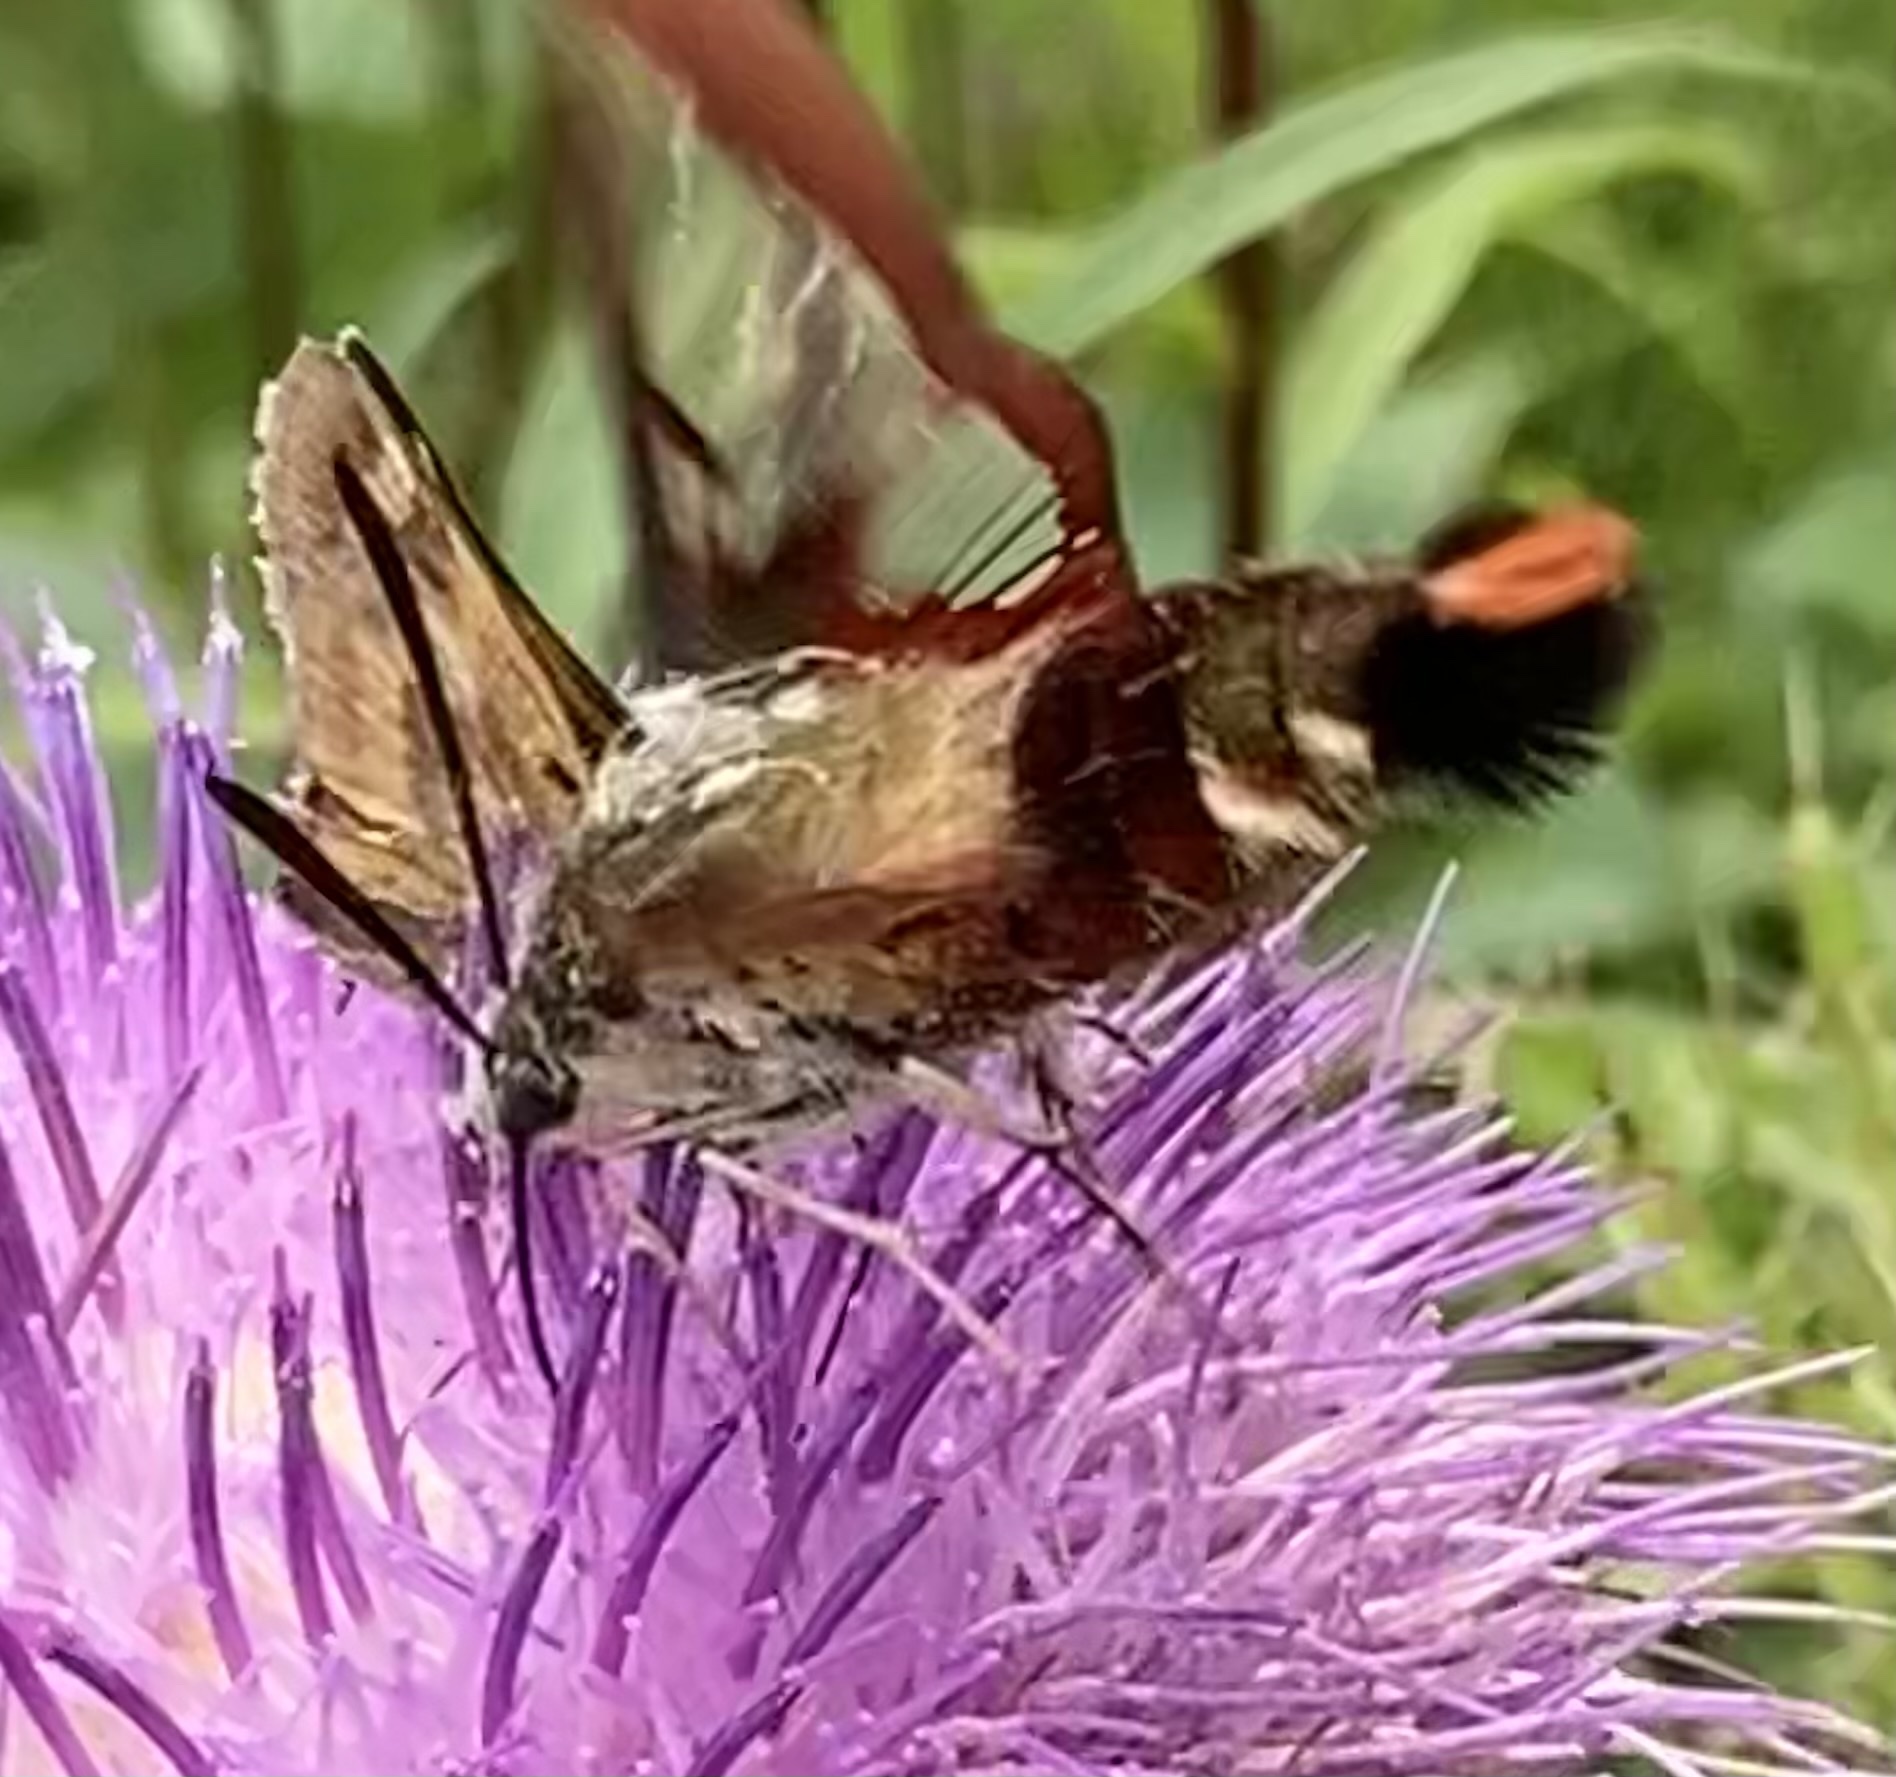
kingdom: Animalia
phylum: Arthropoda
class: Insecta
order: Lepidoptera
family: Sphingidae
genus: Hemaris
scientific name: Hemaris thysbe
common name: Common clear-wing
